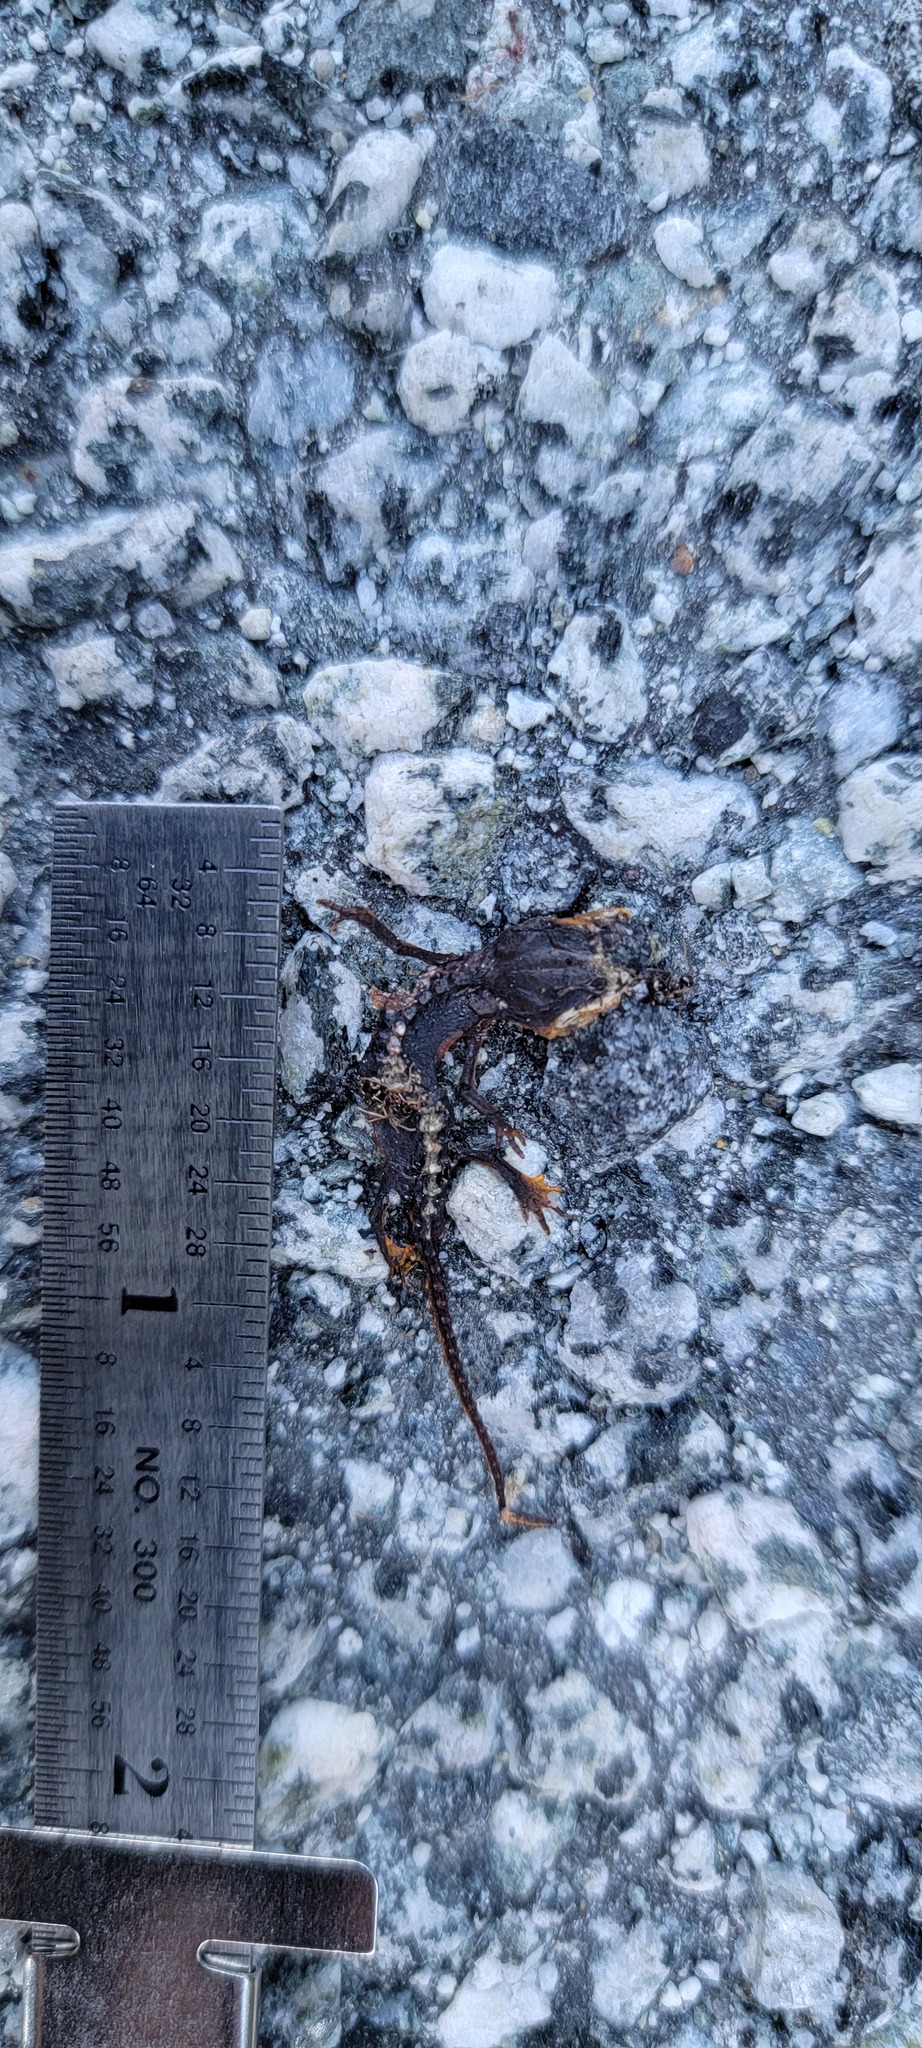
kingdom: Animalia
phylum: Chordata
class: Amphibia
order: Caudata
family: Salamandridae
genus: Taricha
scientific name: Taricha
